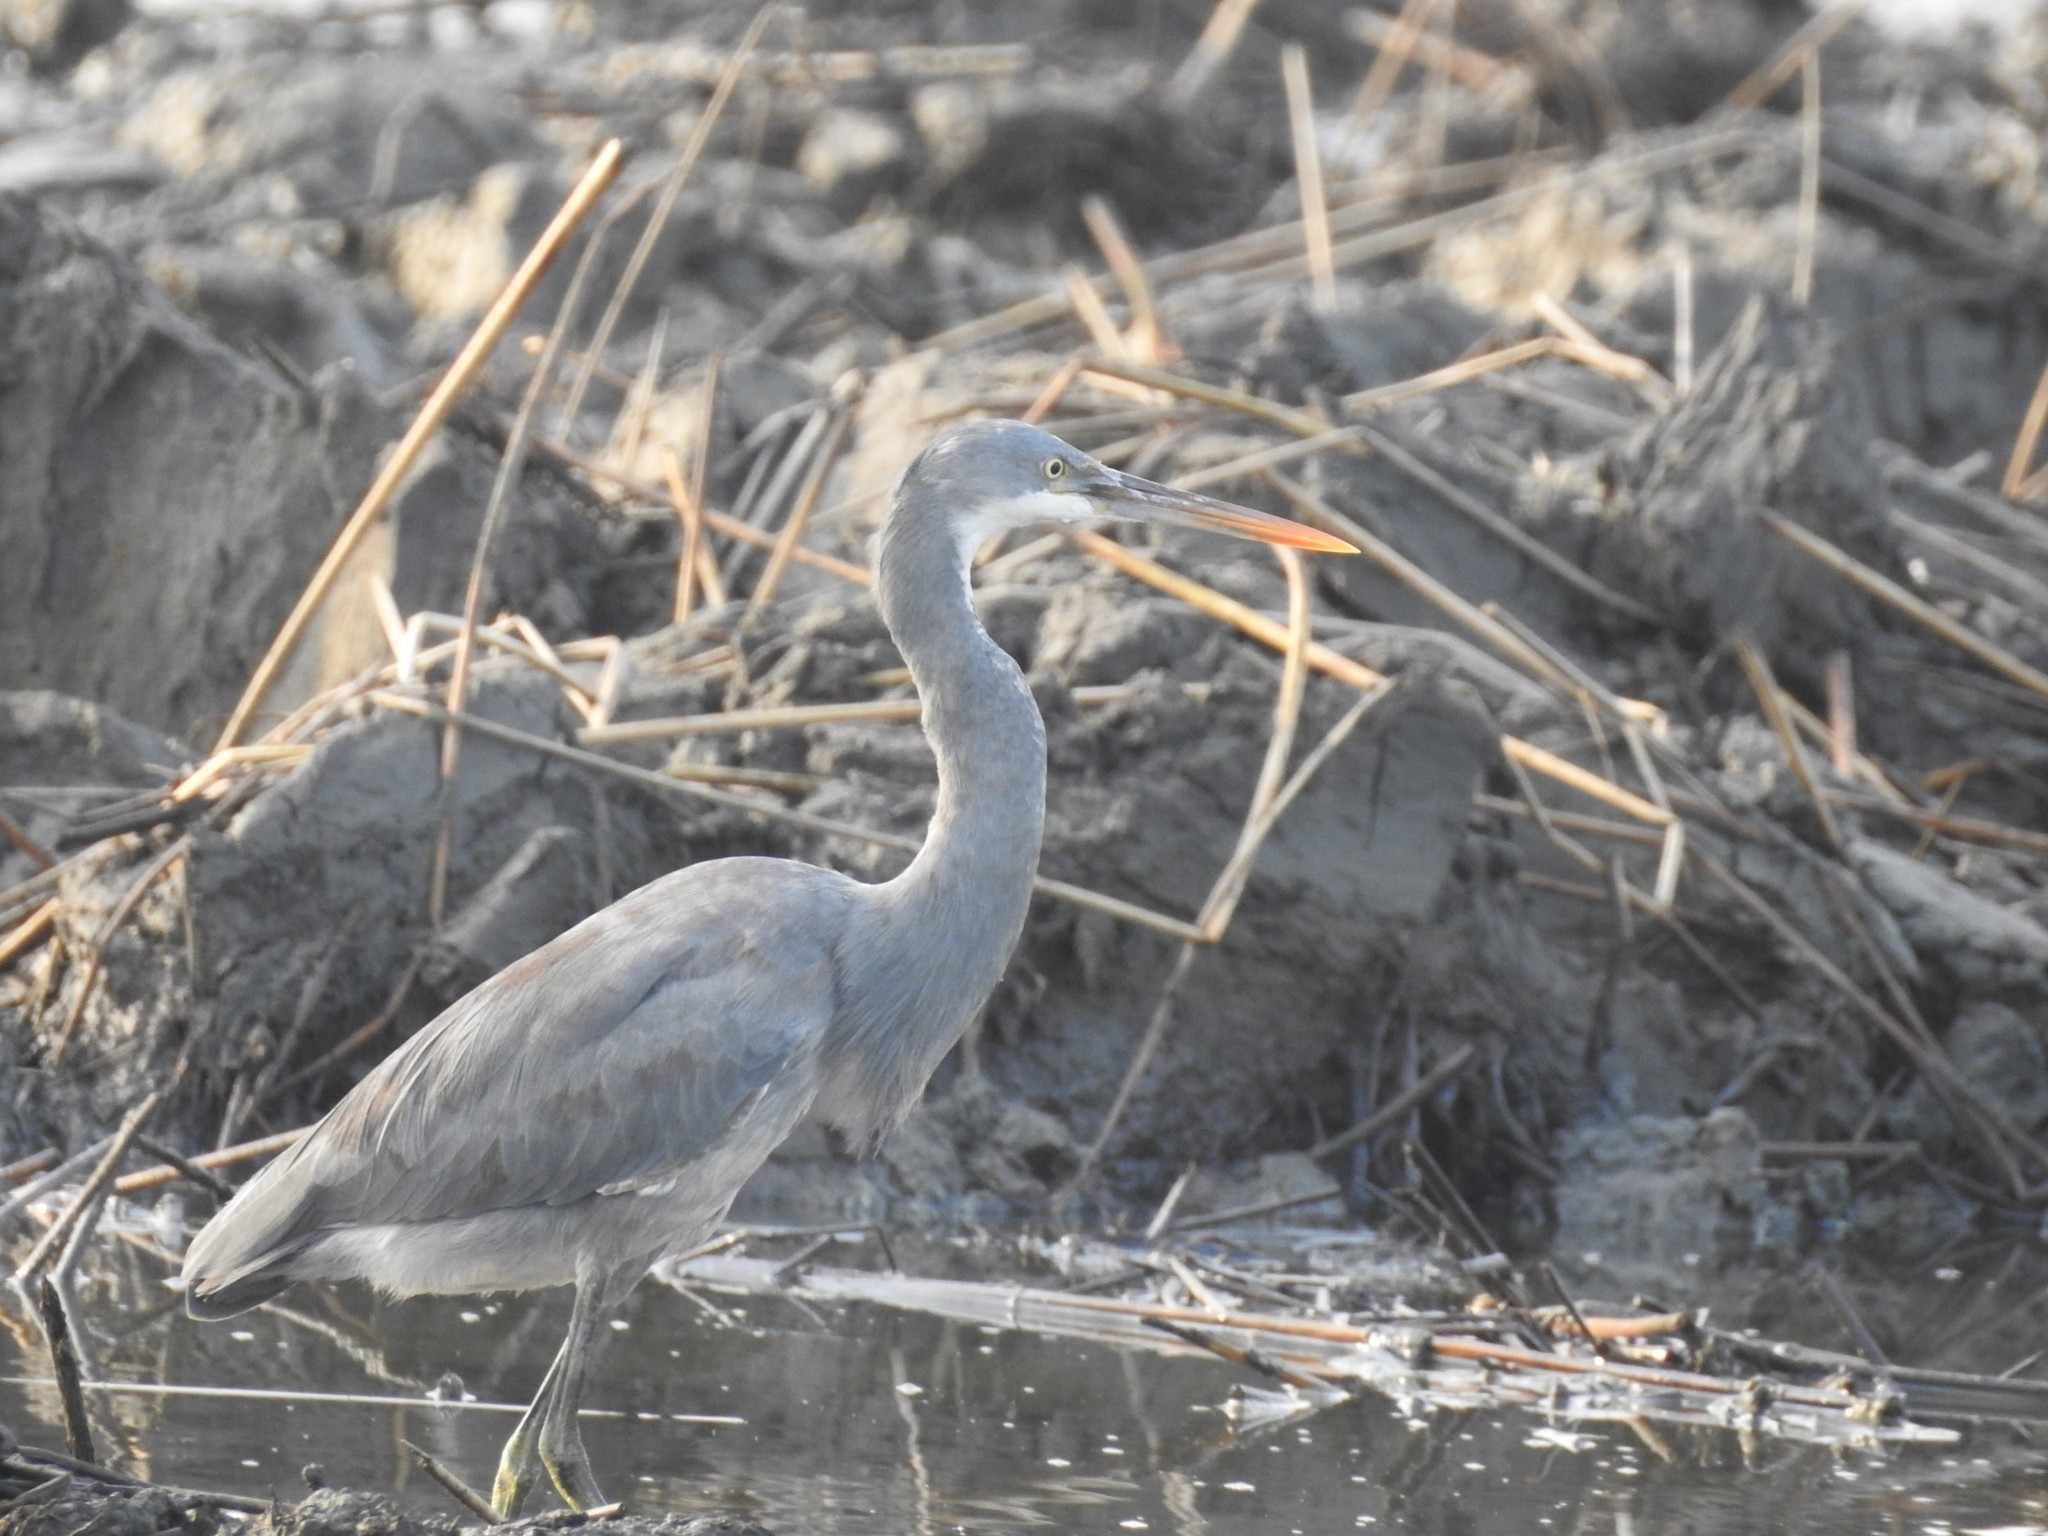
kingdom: Animalia
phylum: Chordata
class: Aves
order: Pelecaniformes
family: Ardeidae
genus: Egretta
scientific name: Egretta gularis
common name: Western reef-heron
